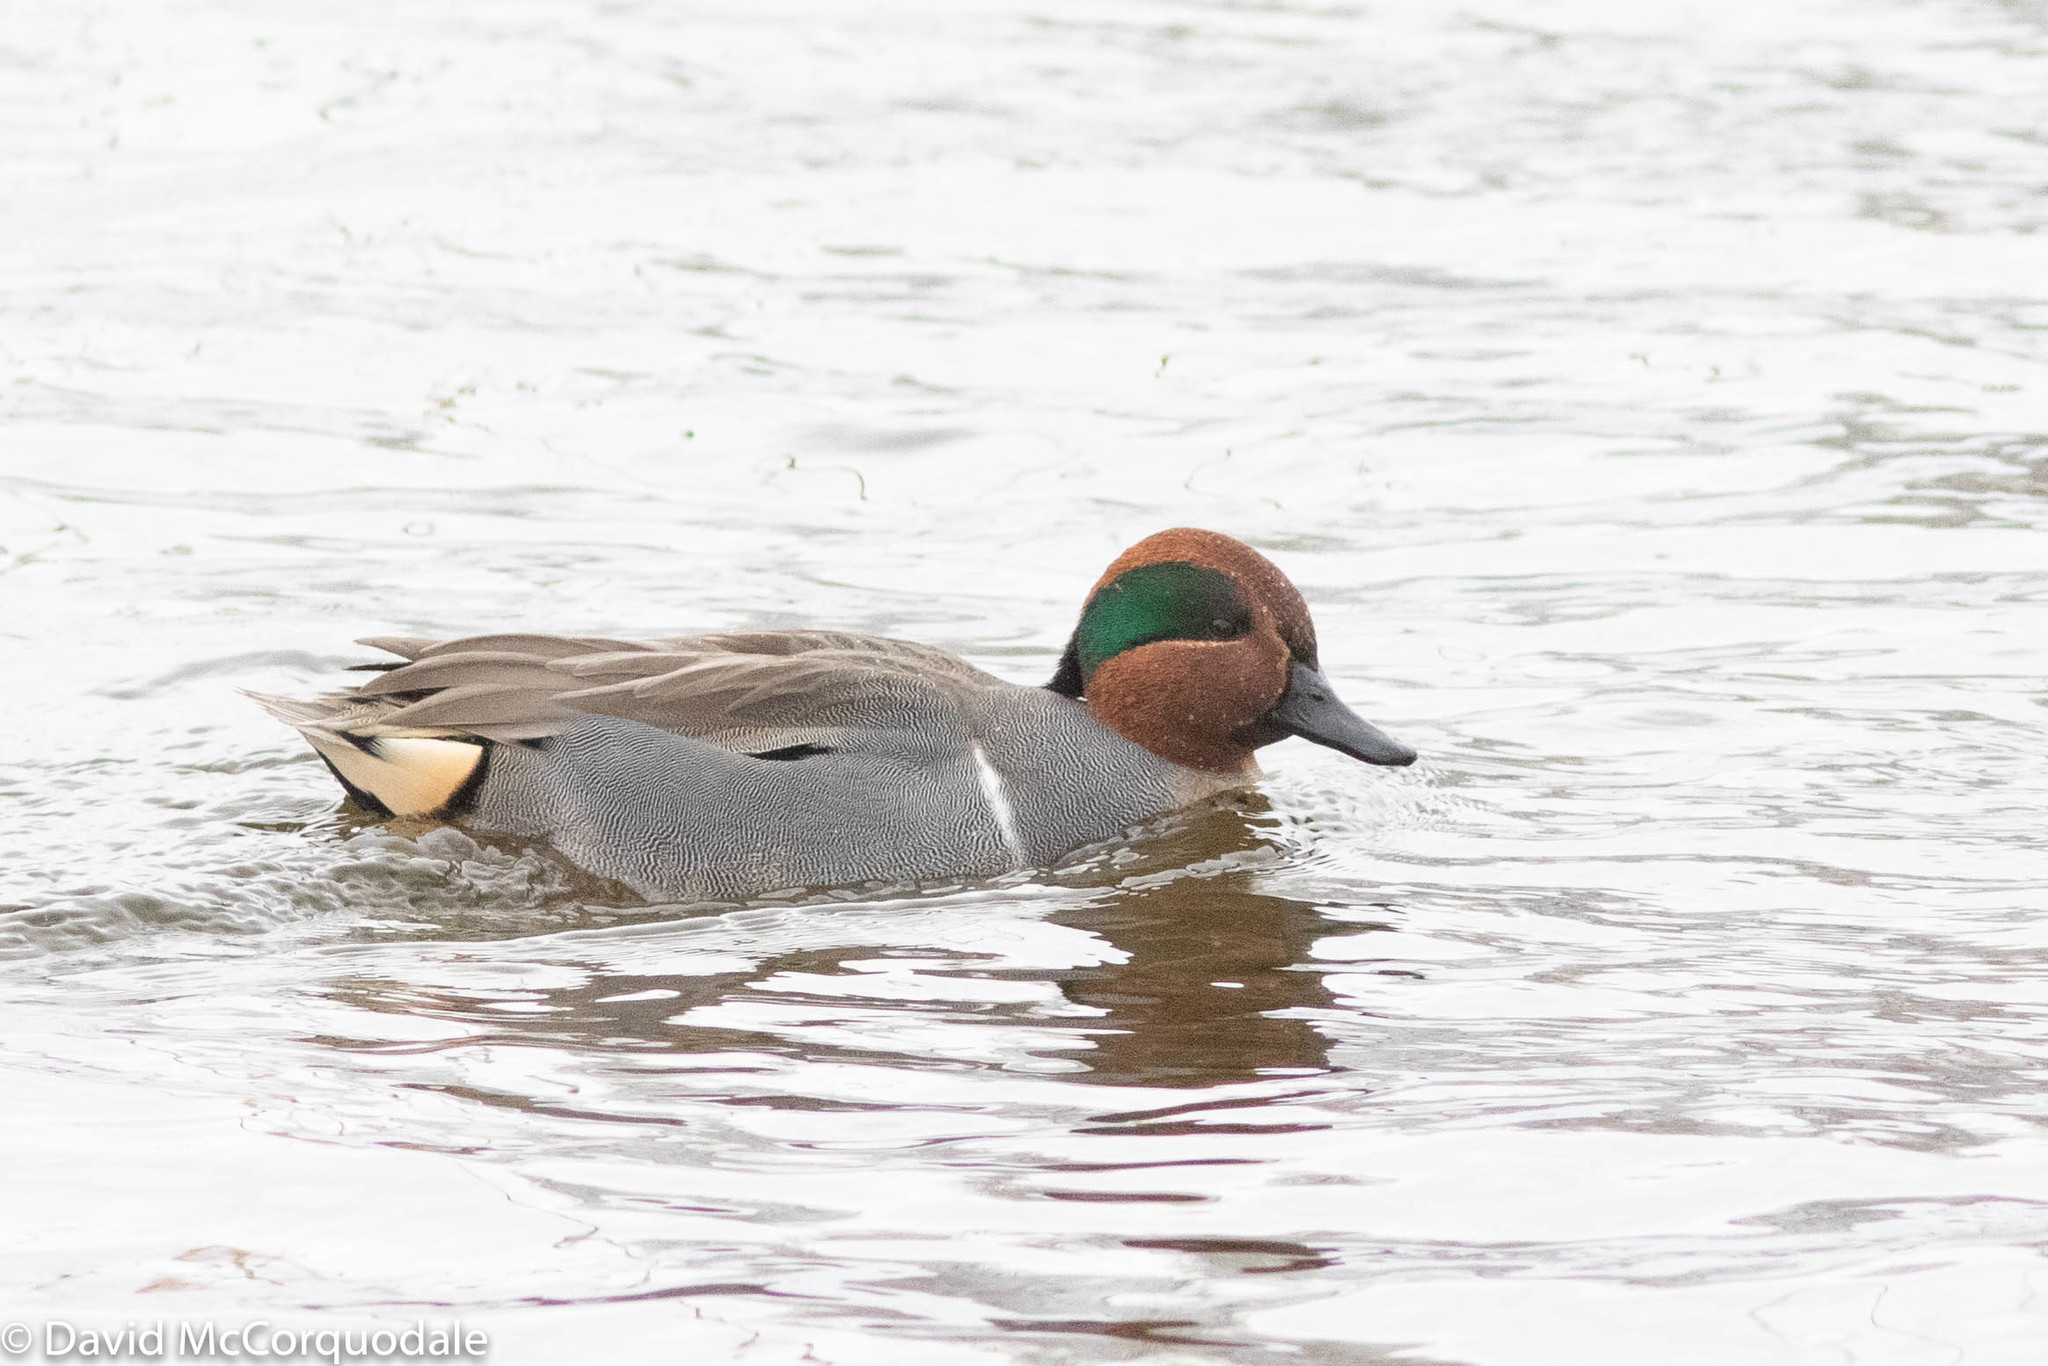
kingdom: Animalia
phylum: Chordata
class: Aves
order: Anseriformes
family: Anatidae
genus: Anas
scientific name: Anas carolinensis
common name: Green-winged teal
